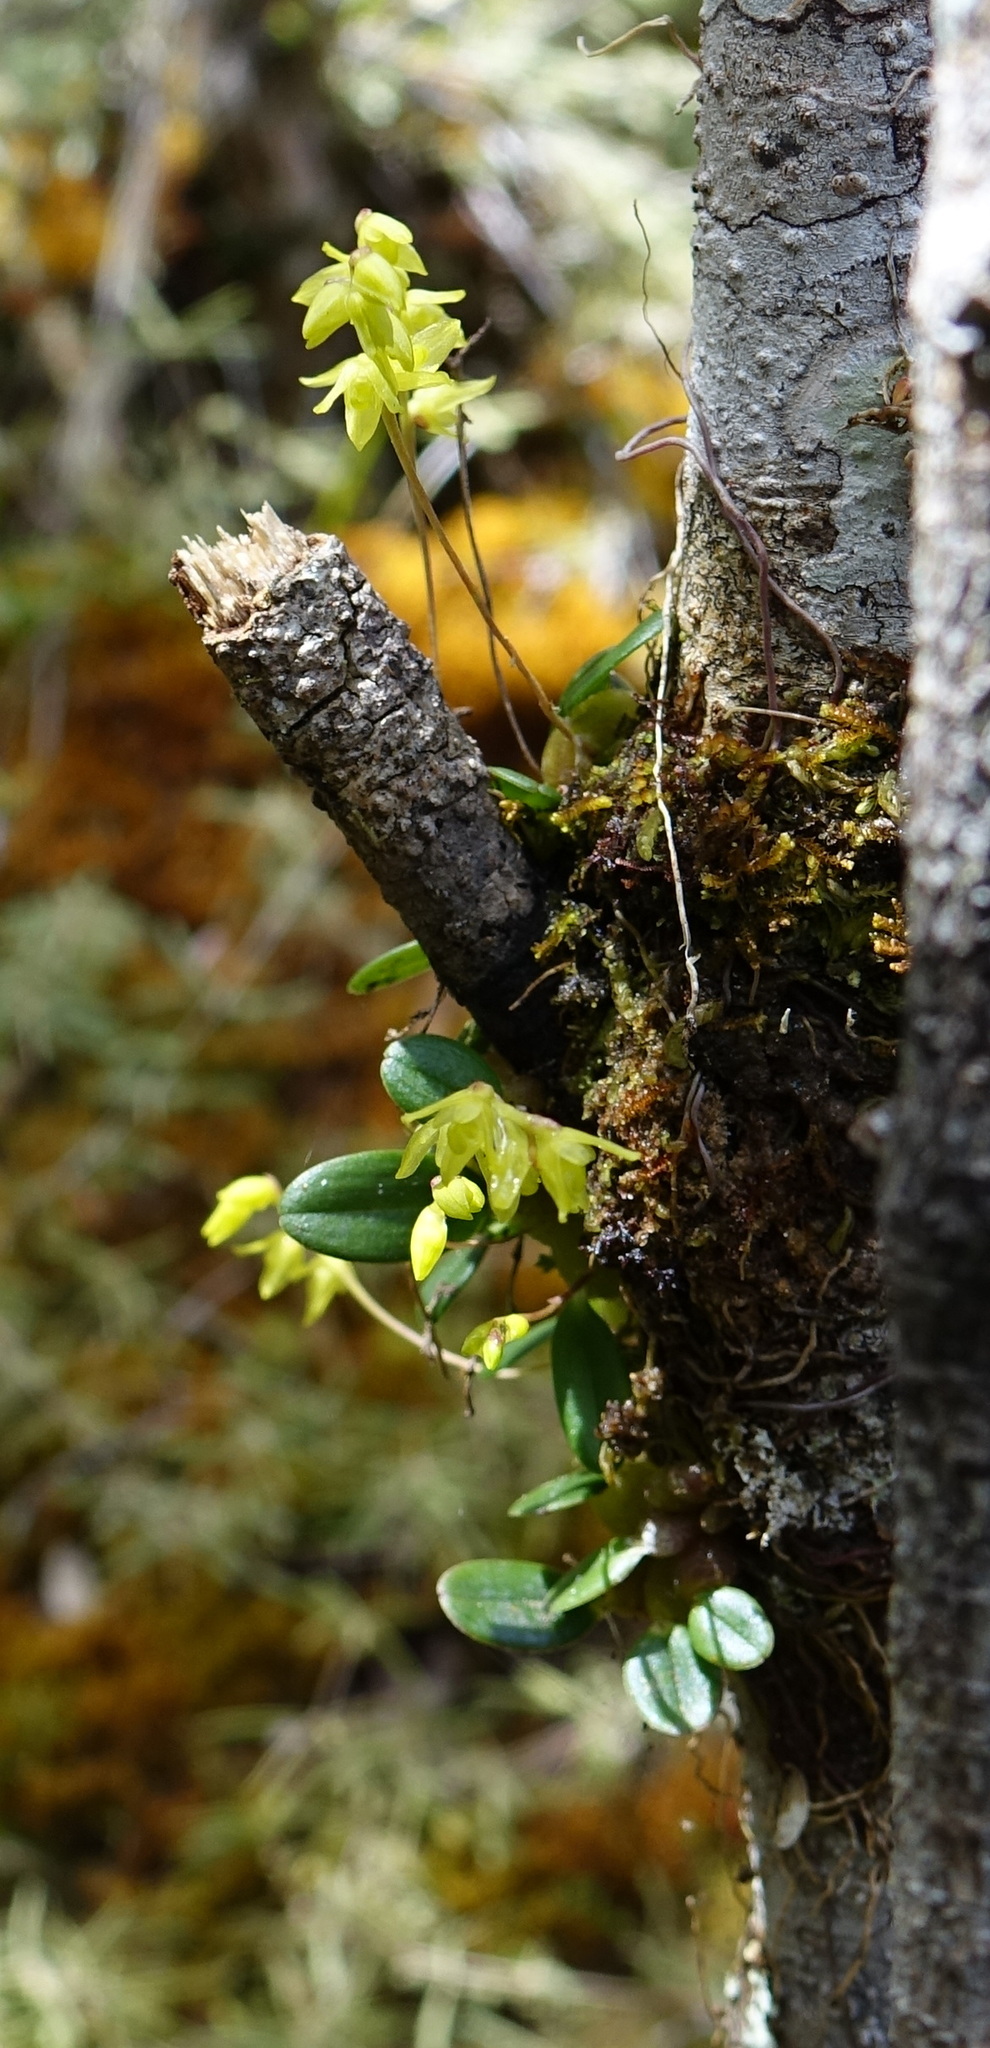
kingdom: Plantae
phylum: Tracheophyta
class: Liliopsida
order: Asparagales
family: Orchidaceae
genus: Bulbophyllum
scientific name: Bulbophyllum conchidioides
